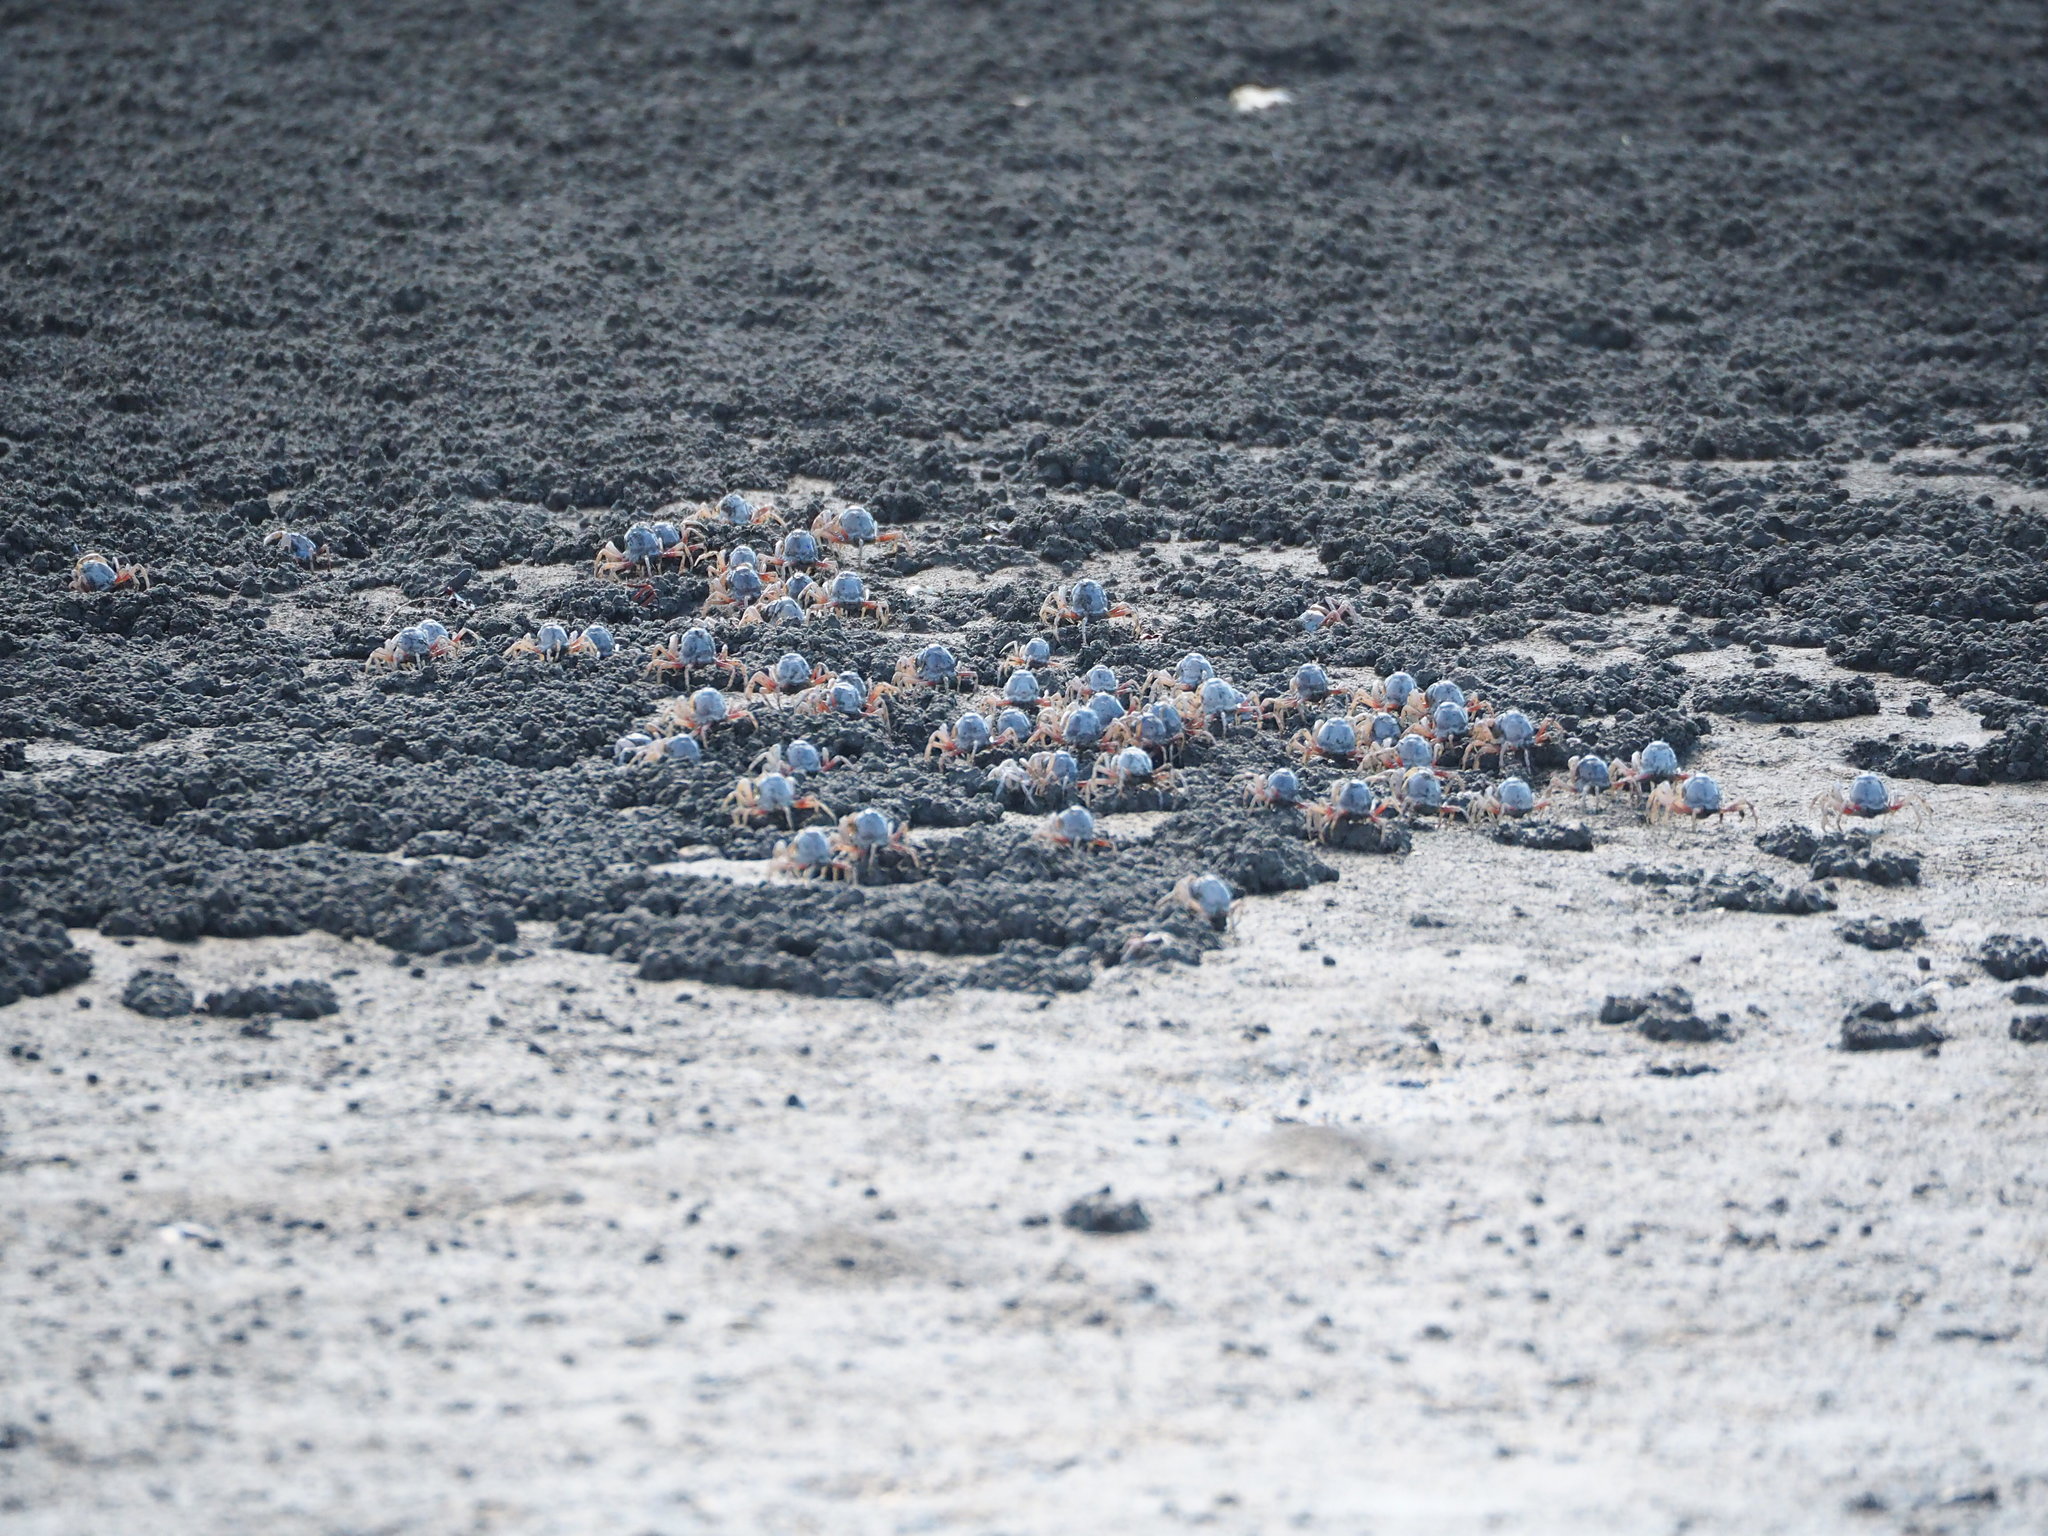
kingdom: Animalia
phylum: Arthropoda
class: Malacostraca
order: Decapoda
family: Mictyridae
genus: Mictyris
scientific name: Mictyris brevidactylus
